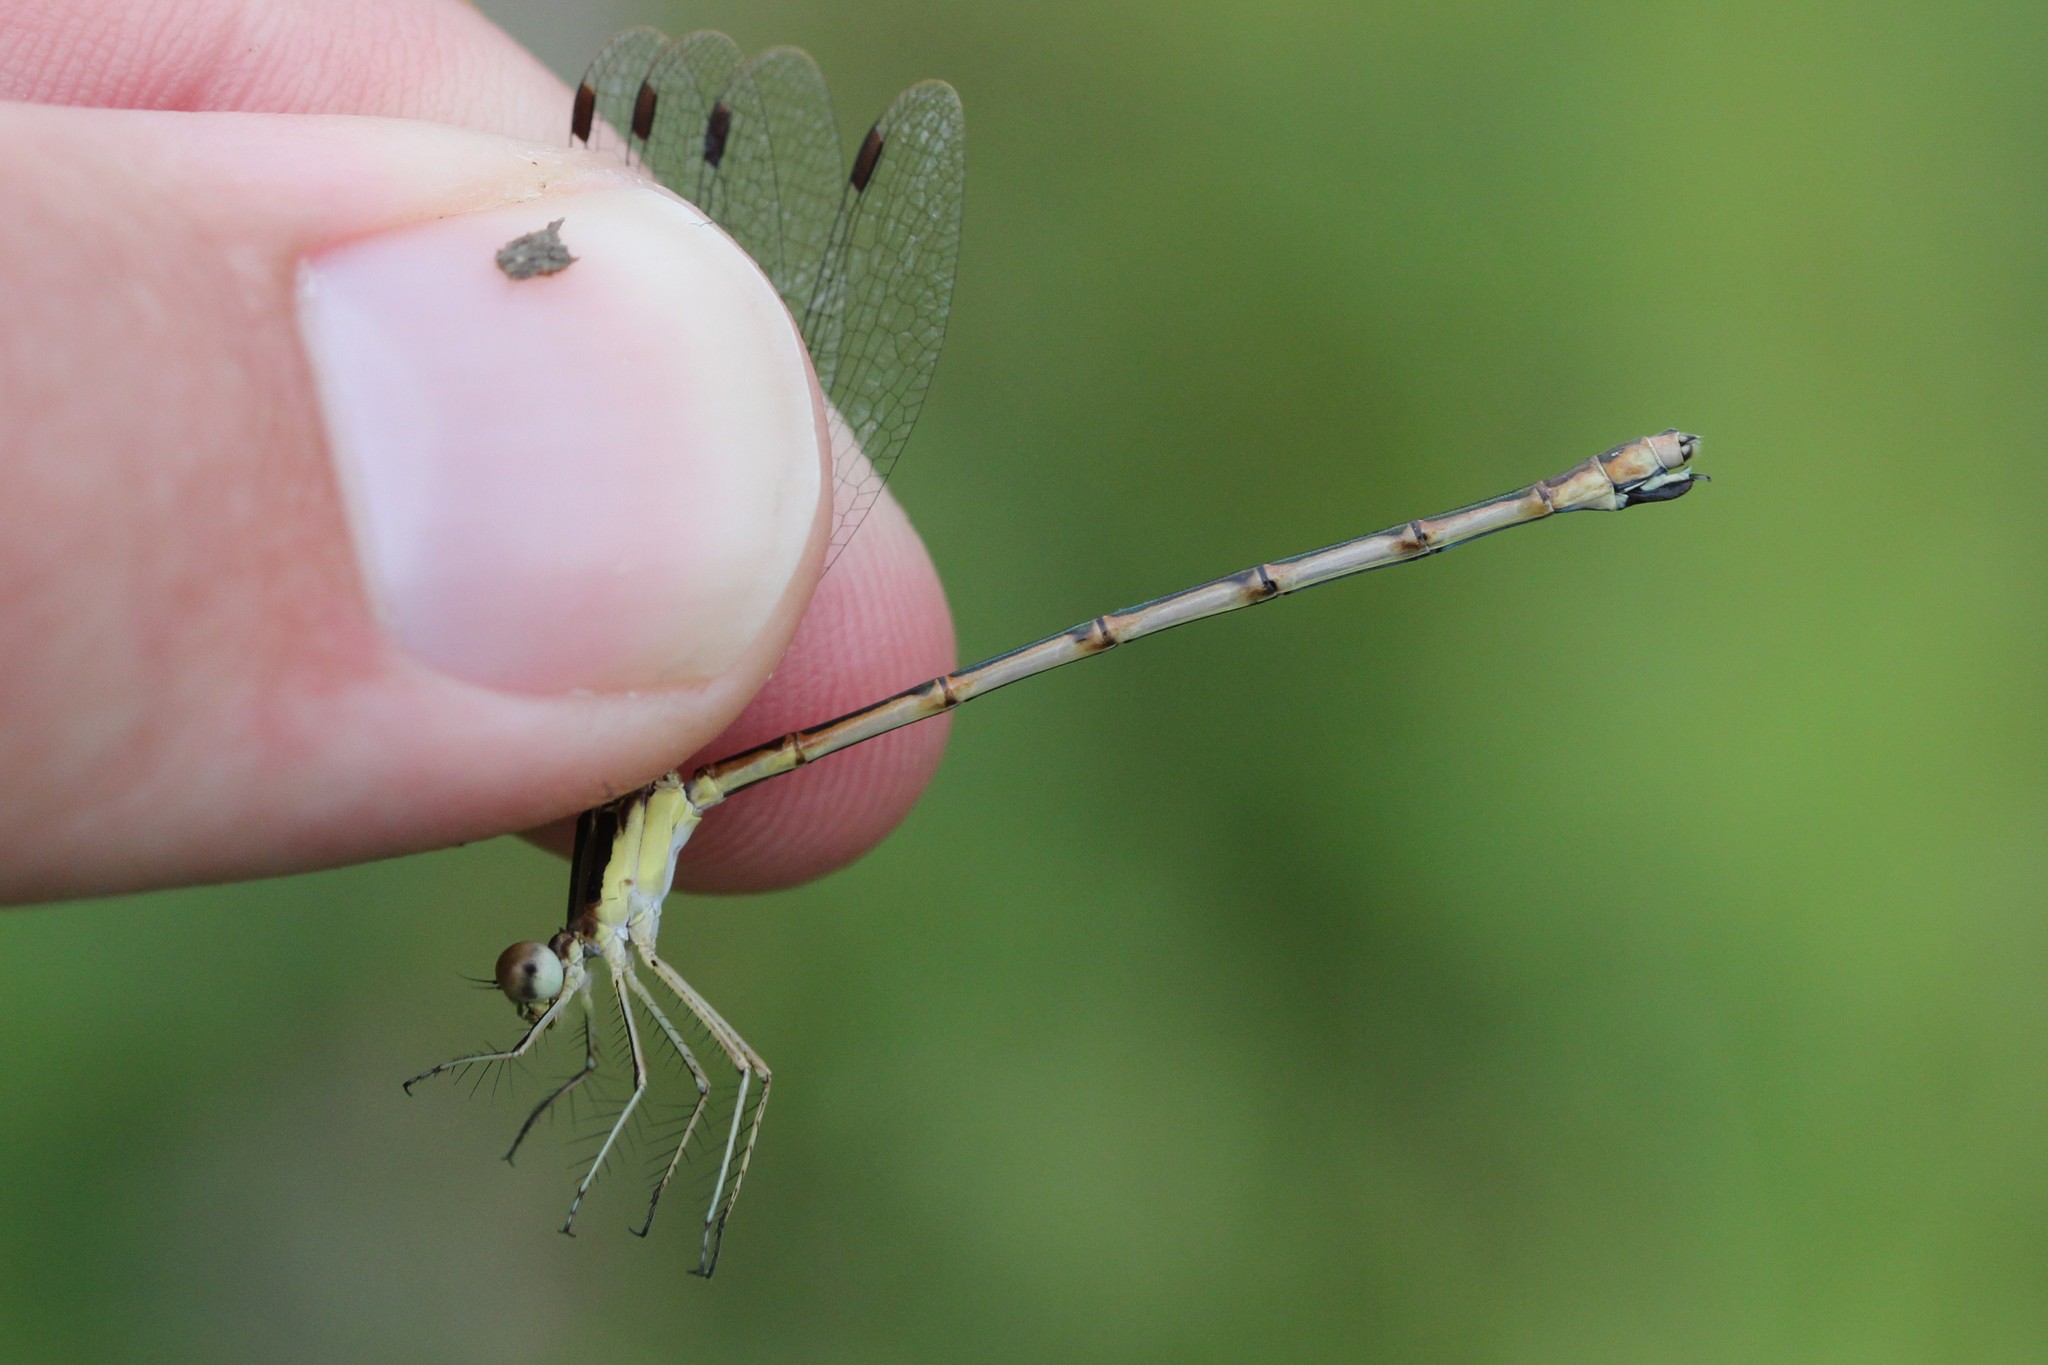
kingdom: Animalia
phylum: Arthropoda
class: Insecta
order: Odonata
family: Lestidae
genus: Lestes
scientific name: Lestes rectangularis
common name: Slender spreadwing
